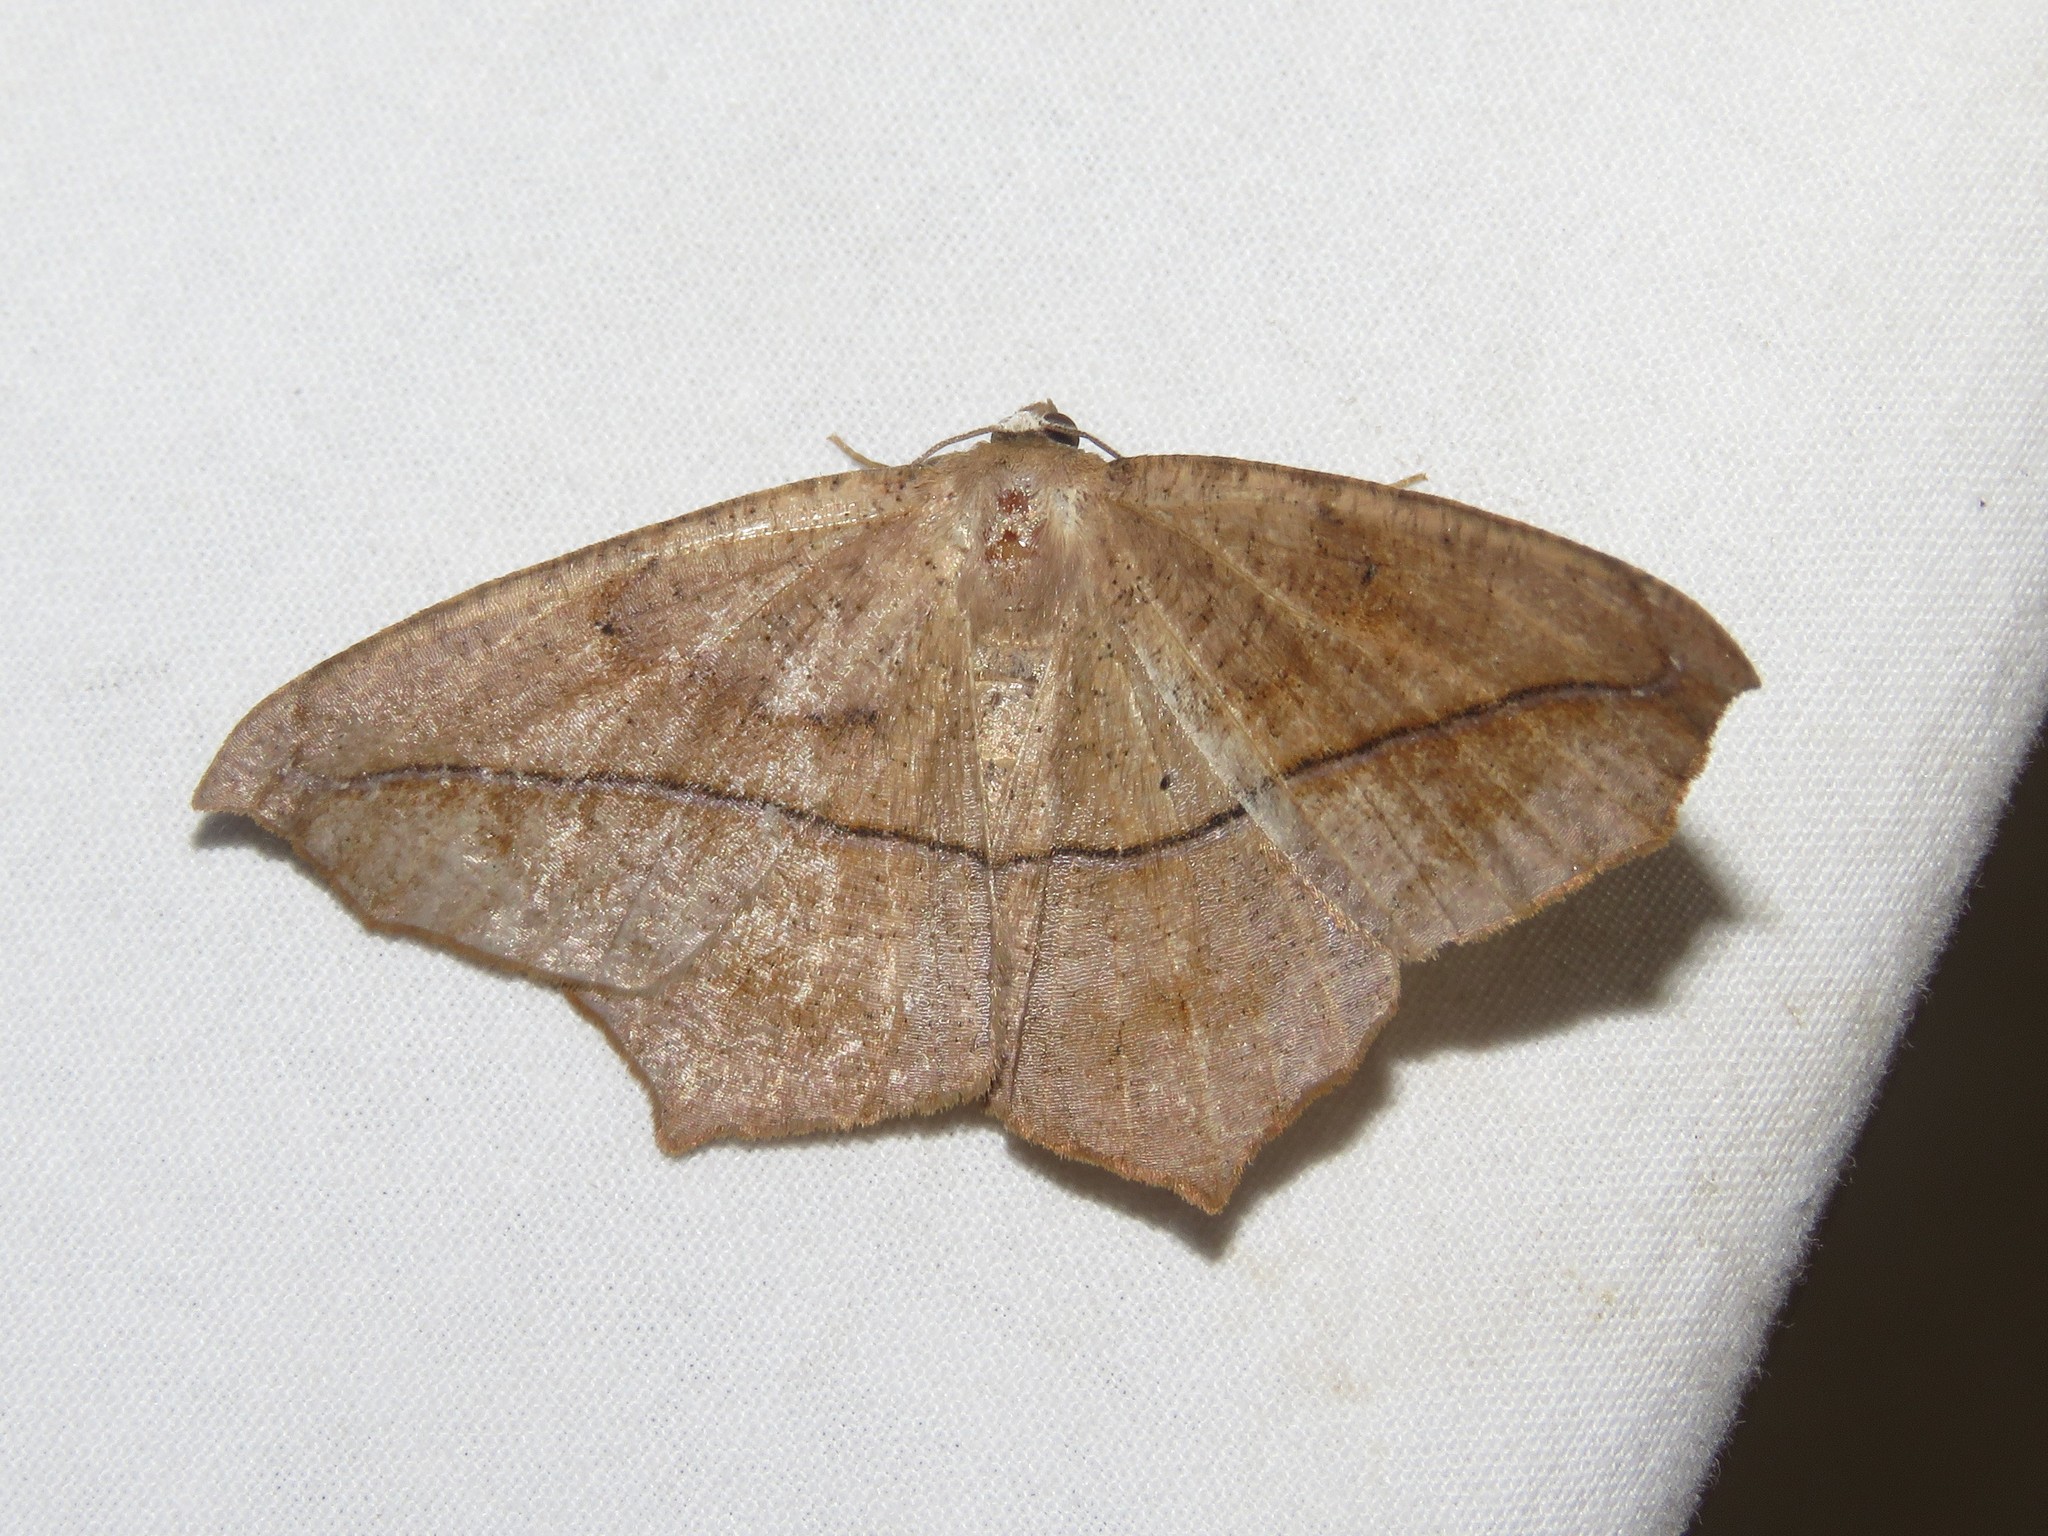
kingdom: Animalia
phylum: Arthropoda
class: Insecta
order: Lepidoptera
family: Geometridae
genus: Prochoerodes
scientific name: Prochoerodes lineola
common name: Large maple spanworm
